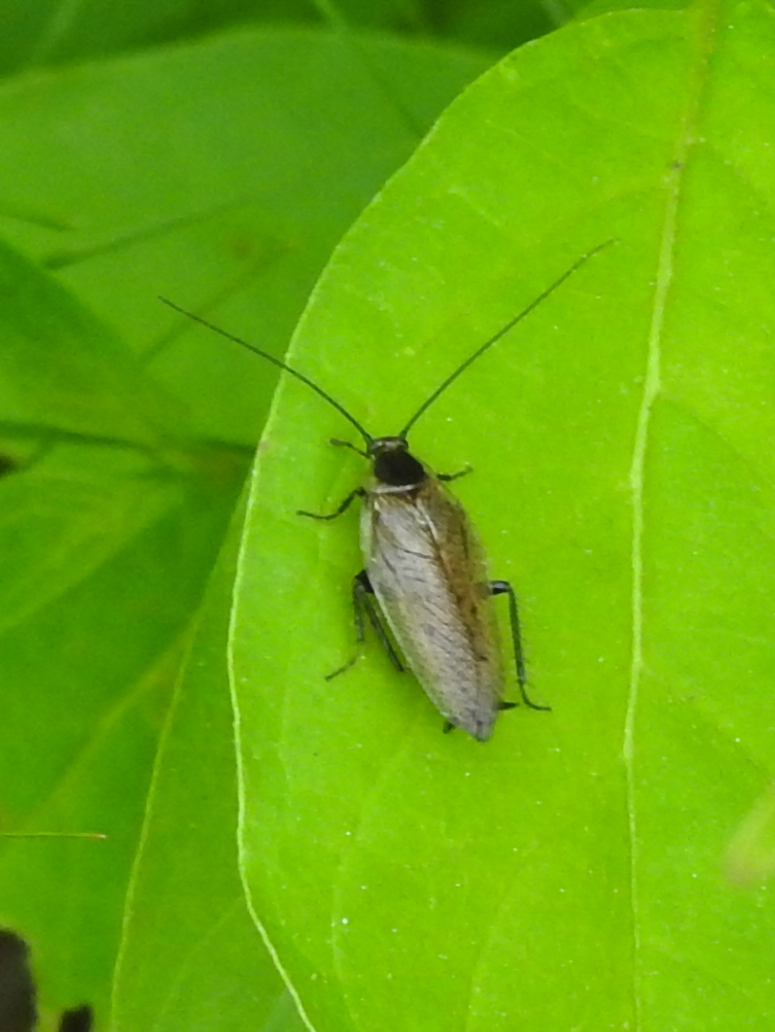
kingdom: Animalia
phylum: Arthropoda
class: Insecta
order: Blattodea
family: Ectobiidae
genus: Ectobius
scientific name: Ectobius lapponicus
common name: Dusky cockroach
